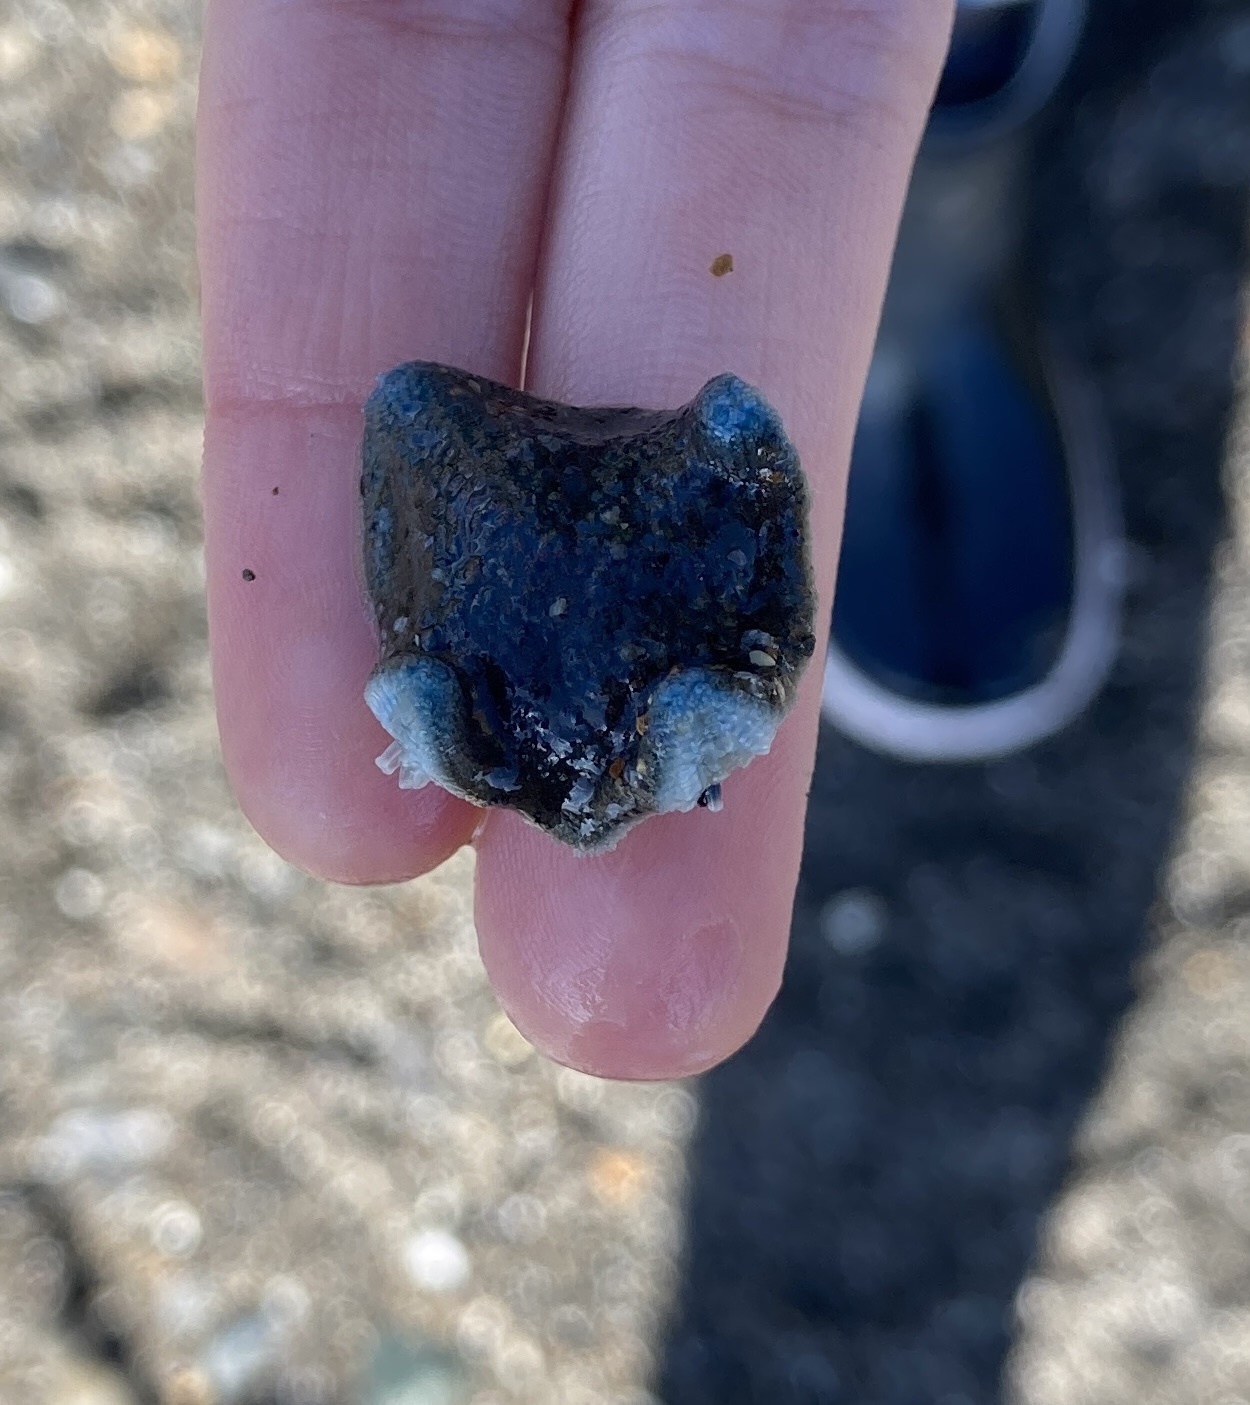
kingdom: Animalia
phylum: Echinodermata
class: Asteroidea
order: Valvatida
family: Asterinidae
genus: Patiriella
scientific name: Patiriella regularis
